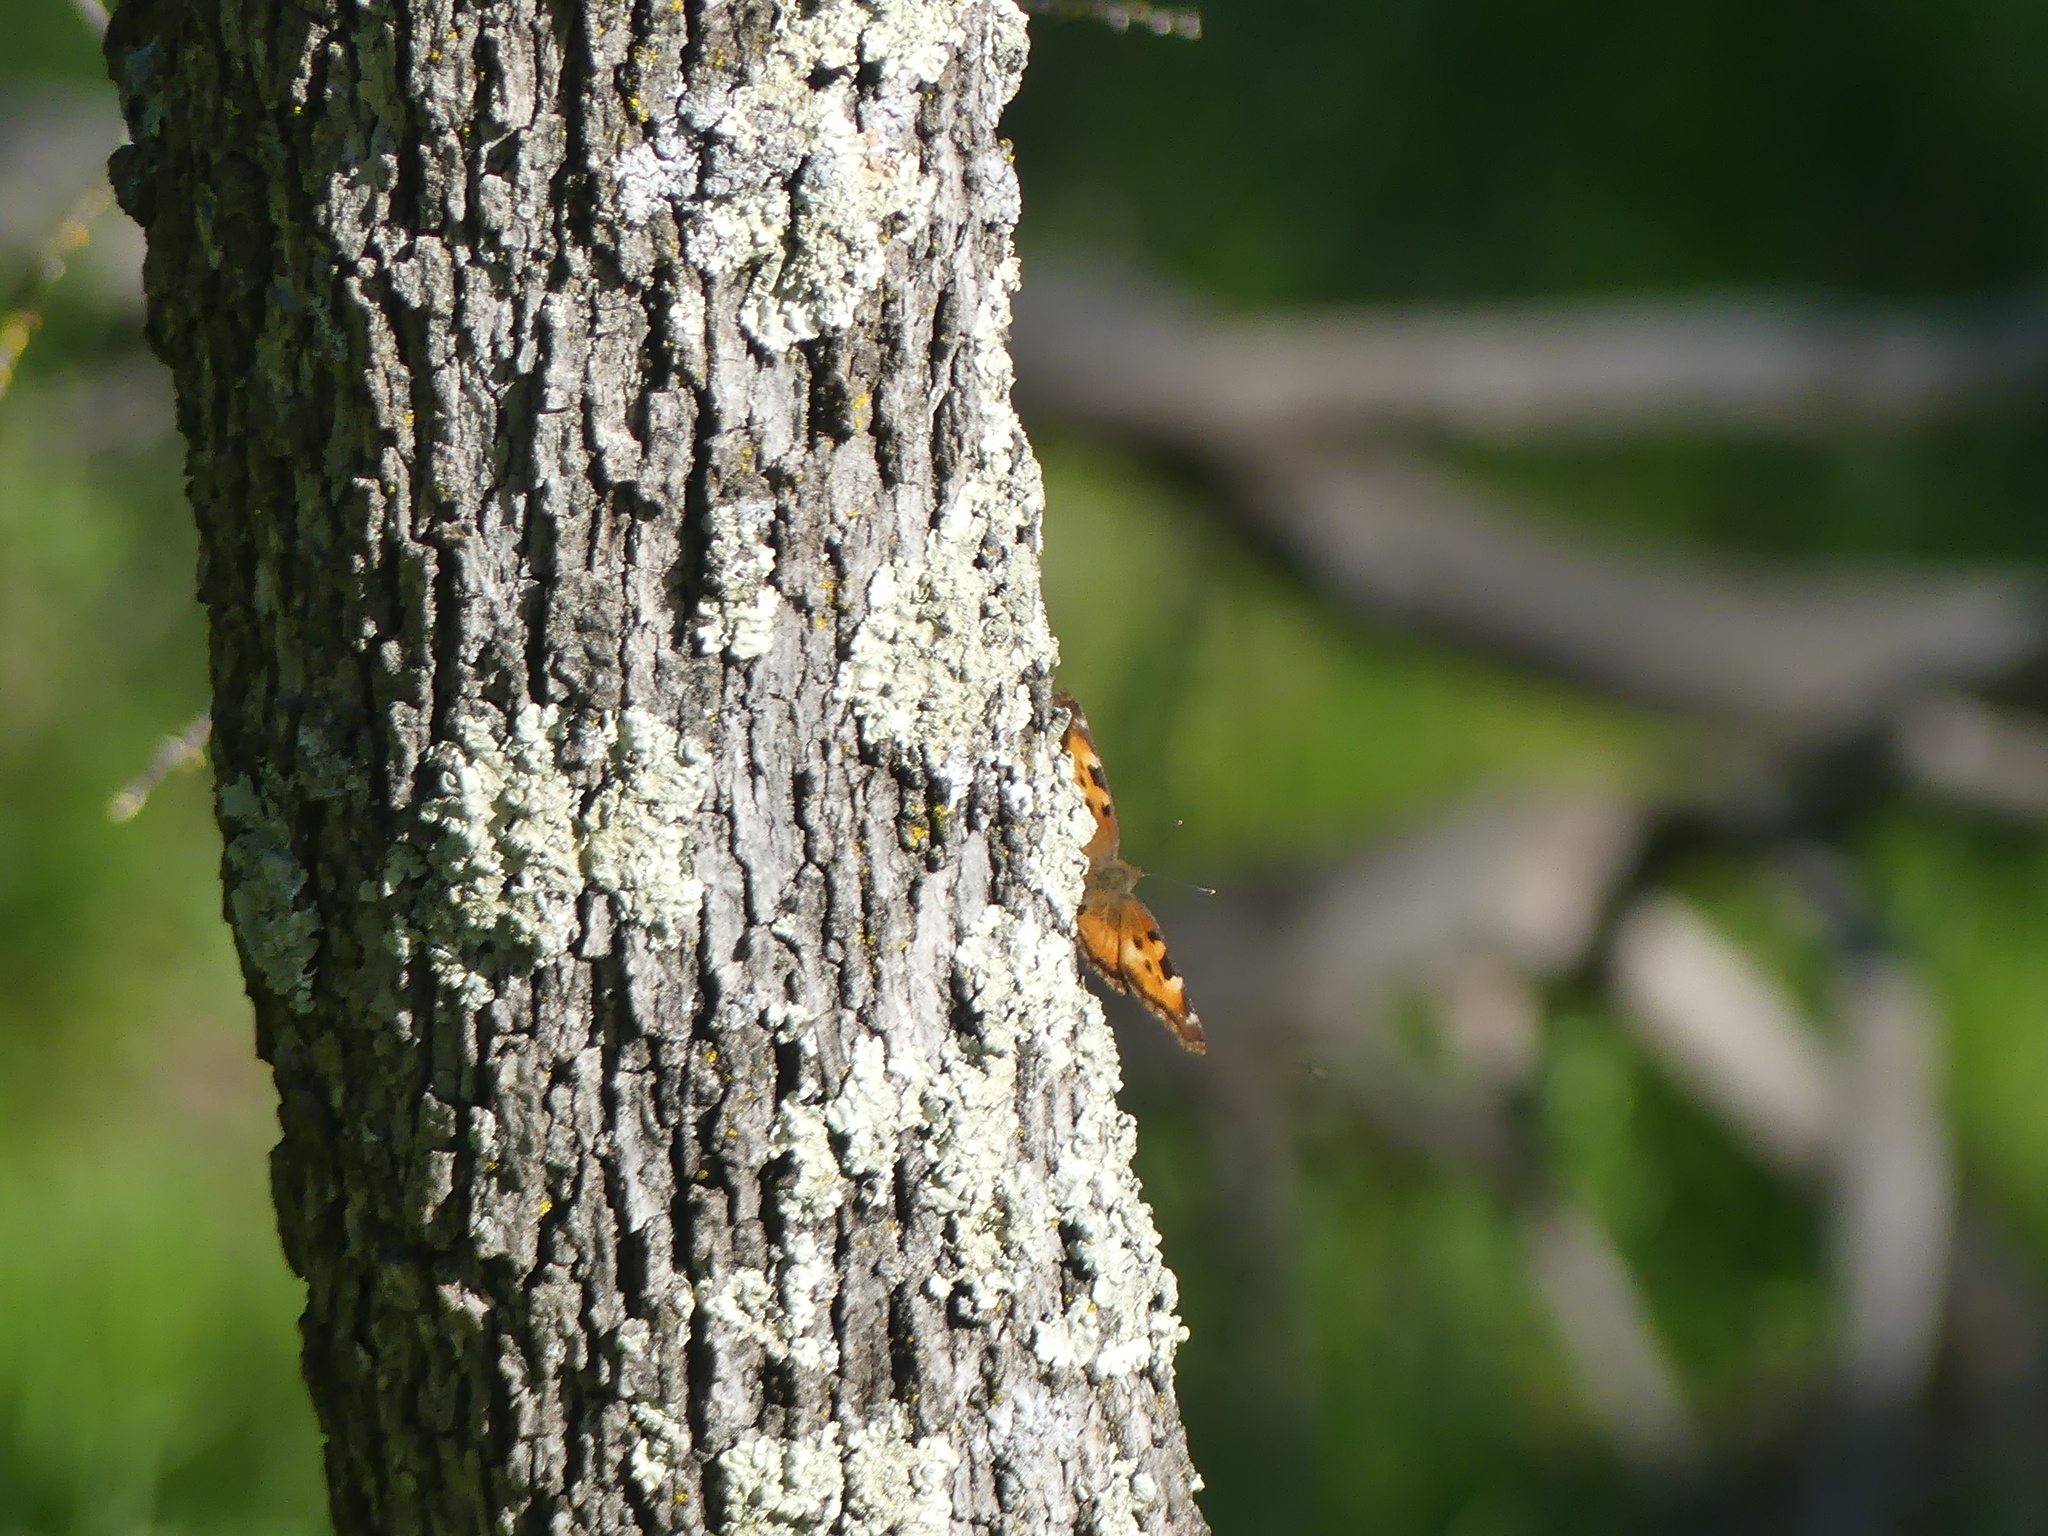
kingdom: Animalia
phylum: Arthropoda
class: Insecta
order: Lepidoptera
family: Nymphalidae
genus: Nymphalis
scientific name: Nymphalis californica
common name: California tortoiseshell
